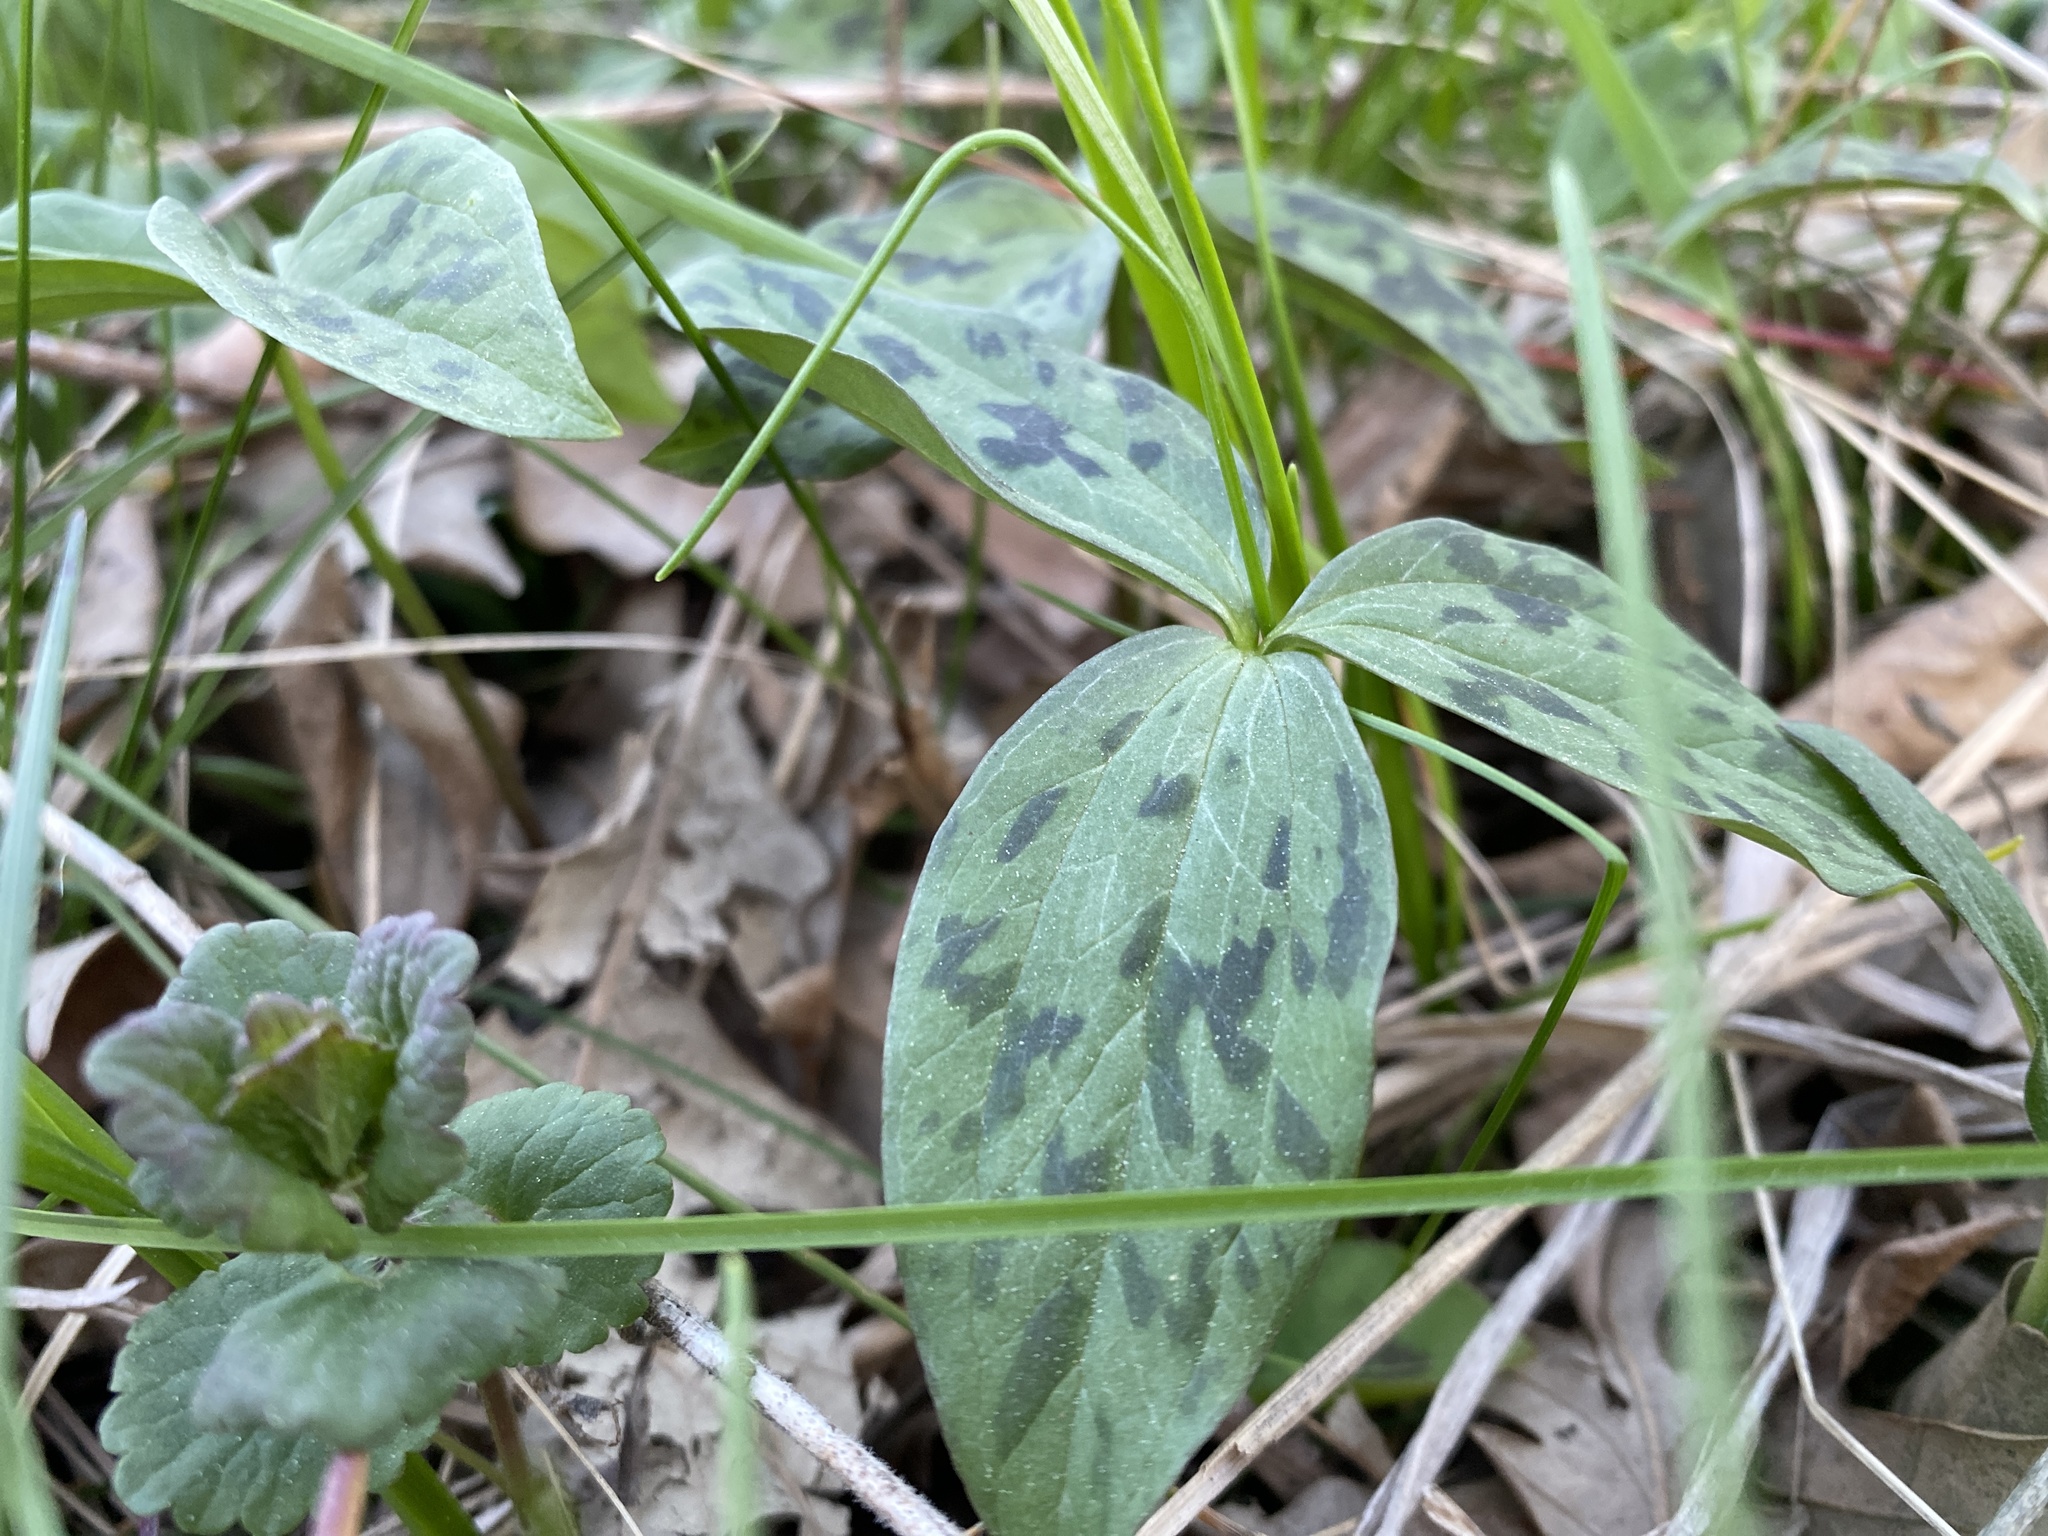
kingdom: Plantae
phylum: Tracheophyta
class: Liliopsida
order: Liliales
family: Melanthiaceae
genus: Trillium
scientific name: Trillium recurvatum
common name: Bloody butcher
